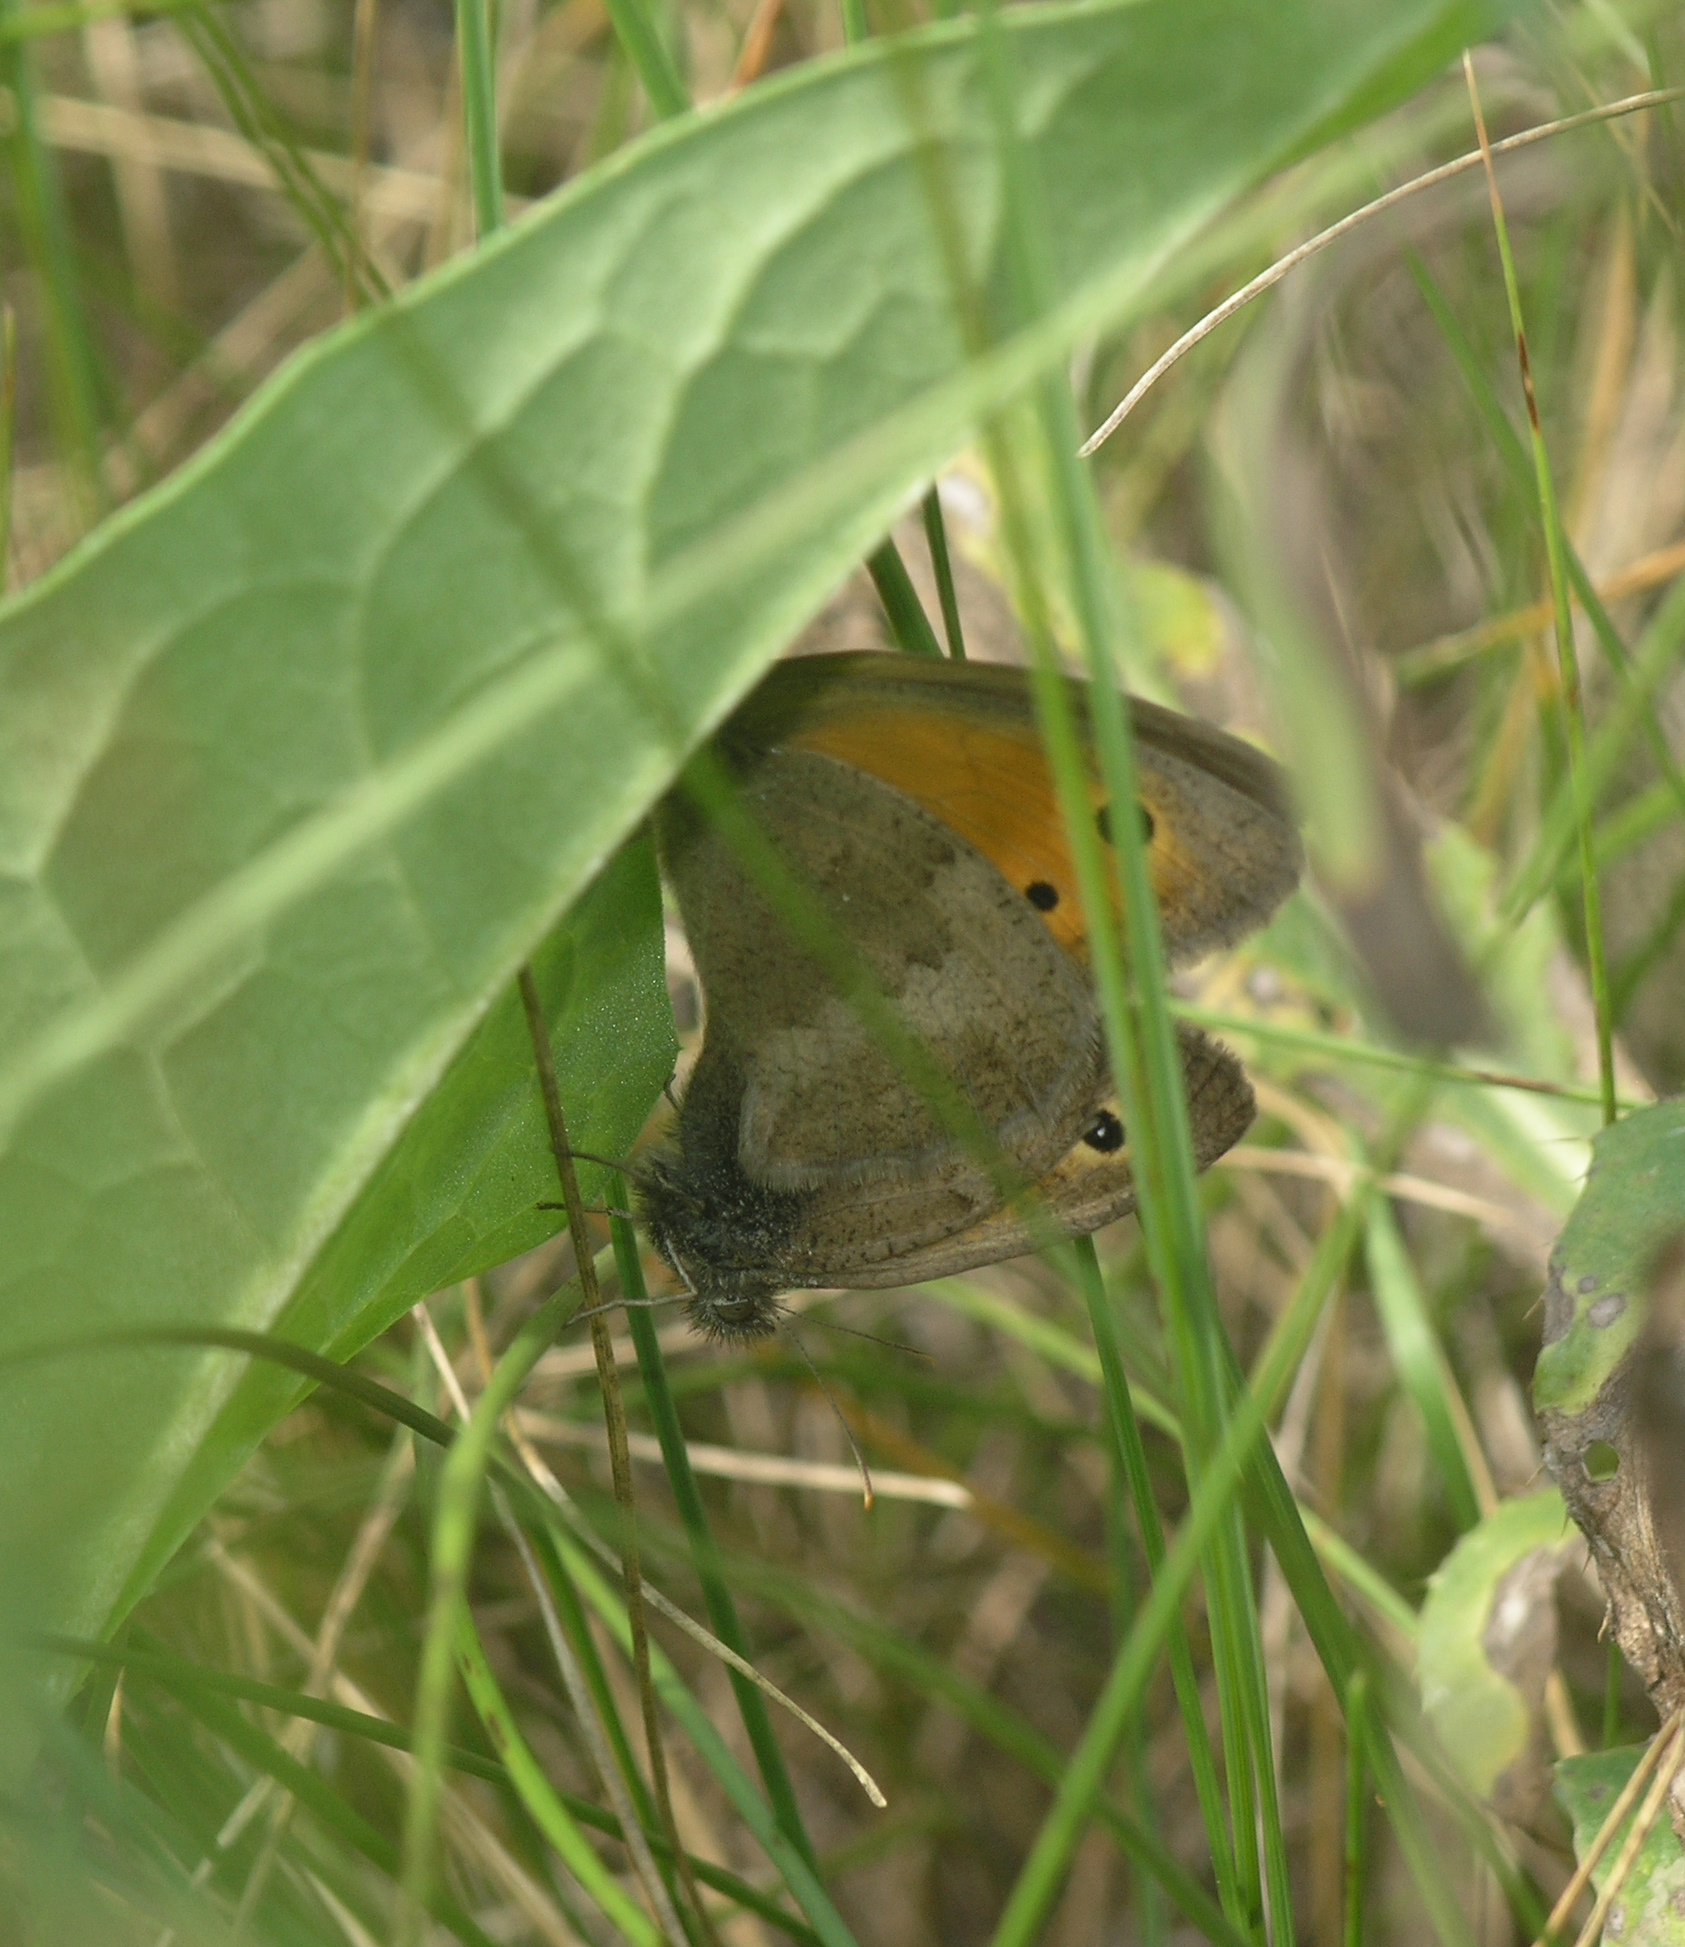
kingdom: Animalia
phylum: Arthropoda
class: Insecta
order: Lepidoptera
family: Nymphalidae
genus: Hyponephele
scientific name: Hyponephele lycaon
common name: Dusky meadow brown
